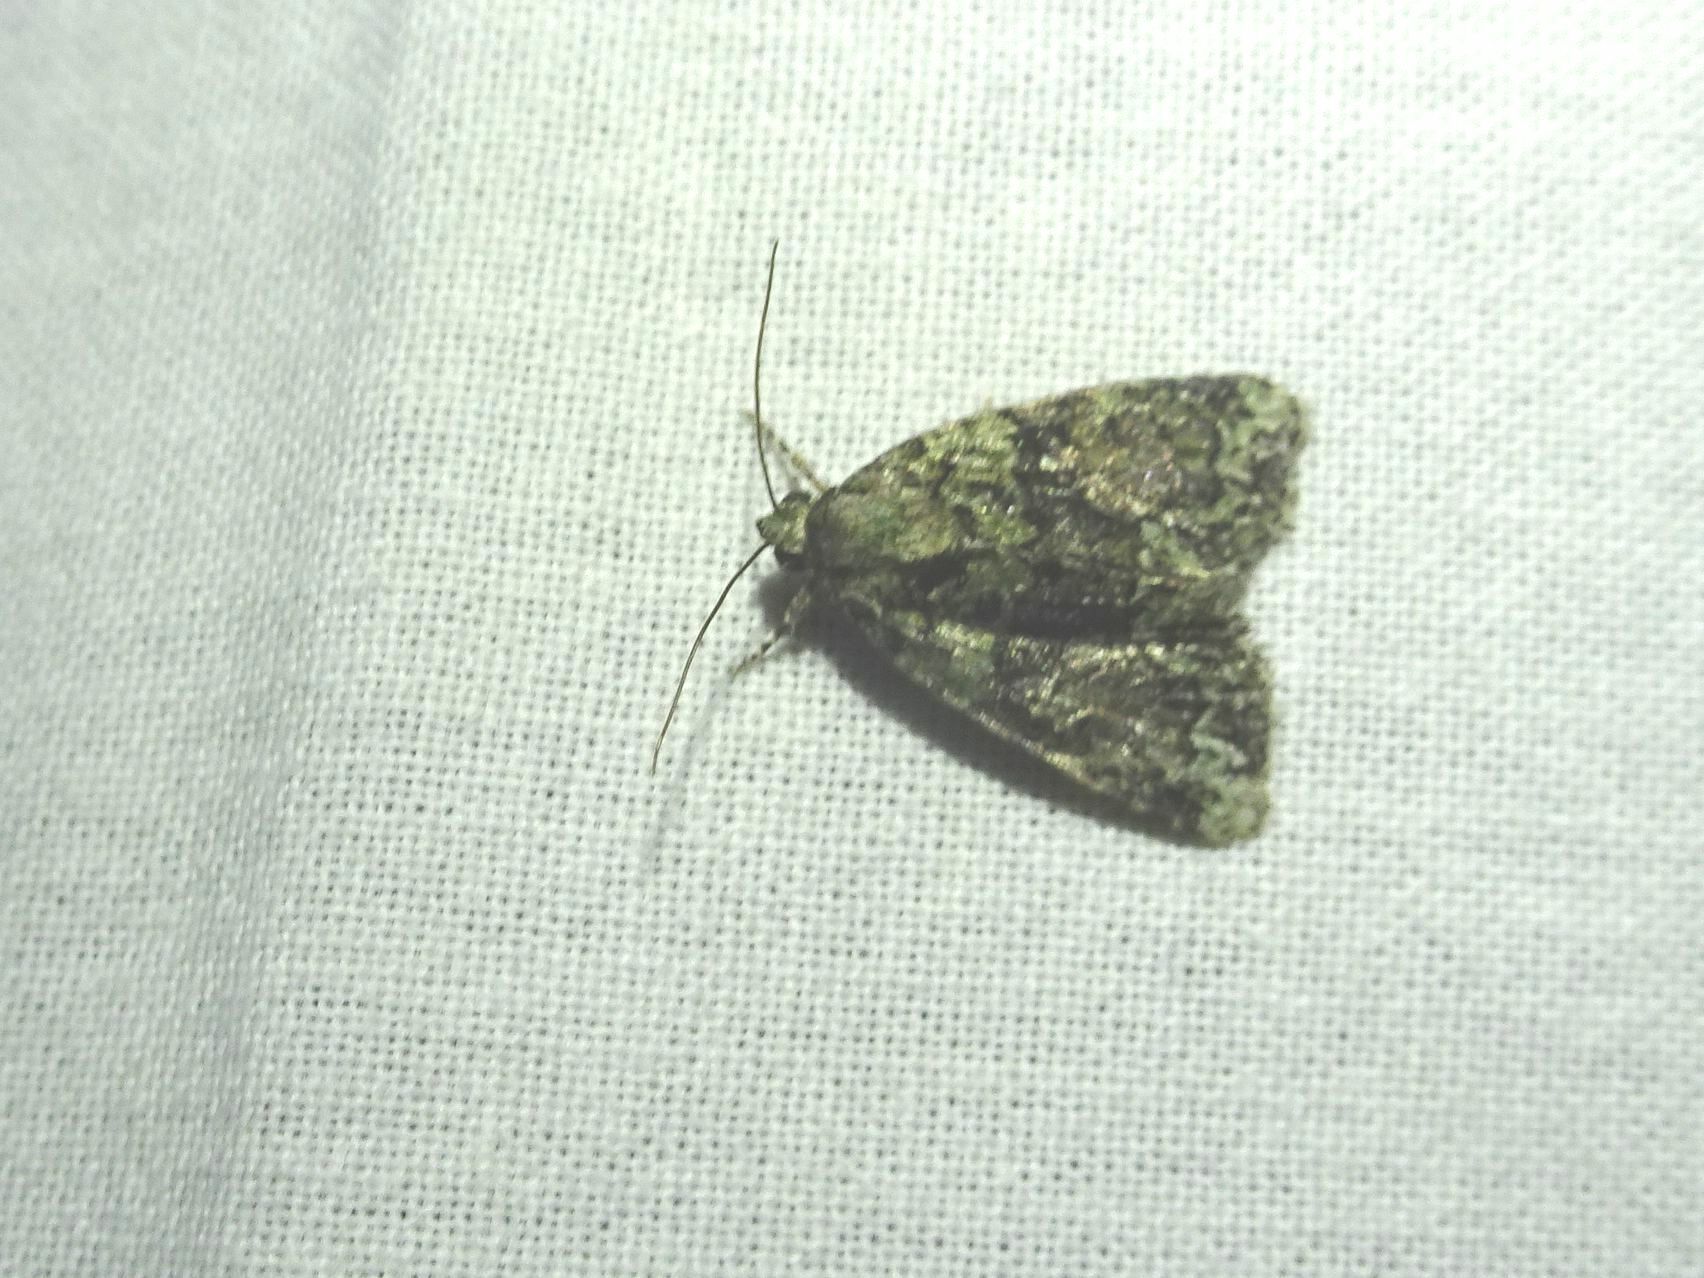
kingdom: Animalia
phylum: Arthropoda
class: Insecta
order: Lepidoptera
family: Noctuidae
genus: Cryphia
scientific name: Cryphia algae
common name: Tree-lichen beauty
